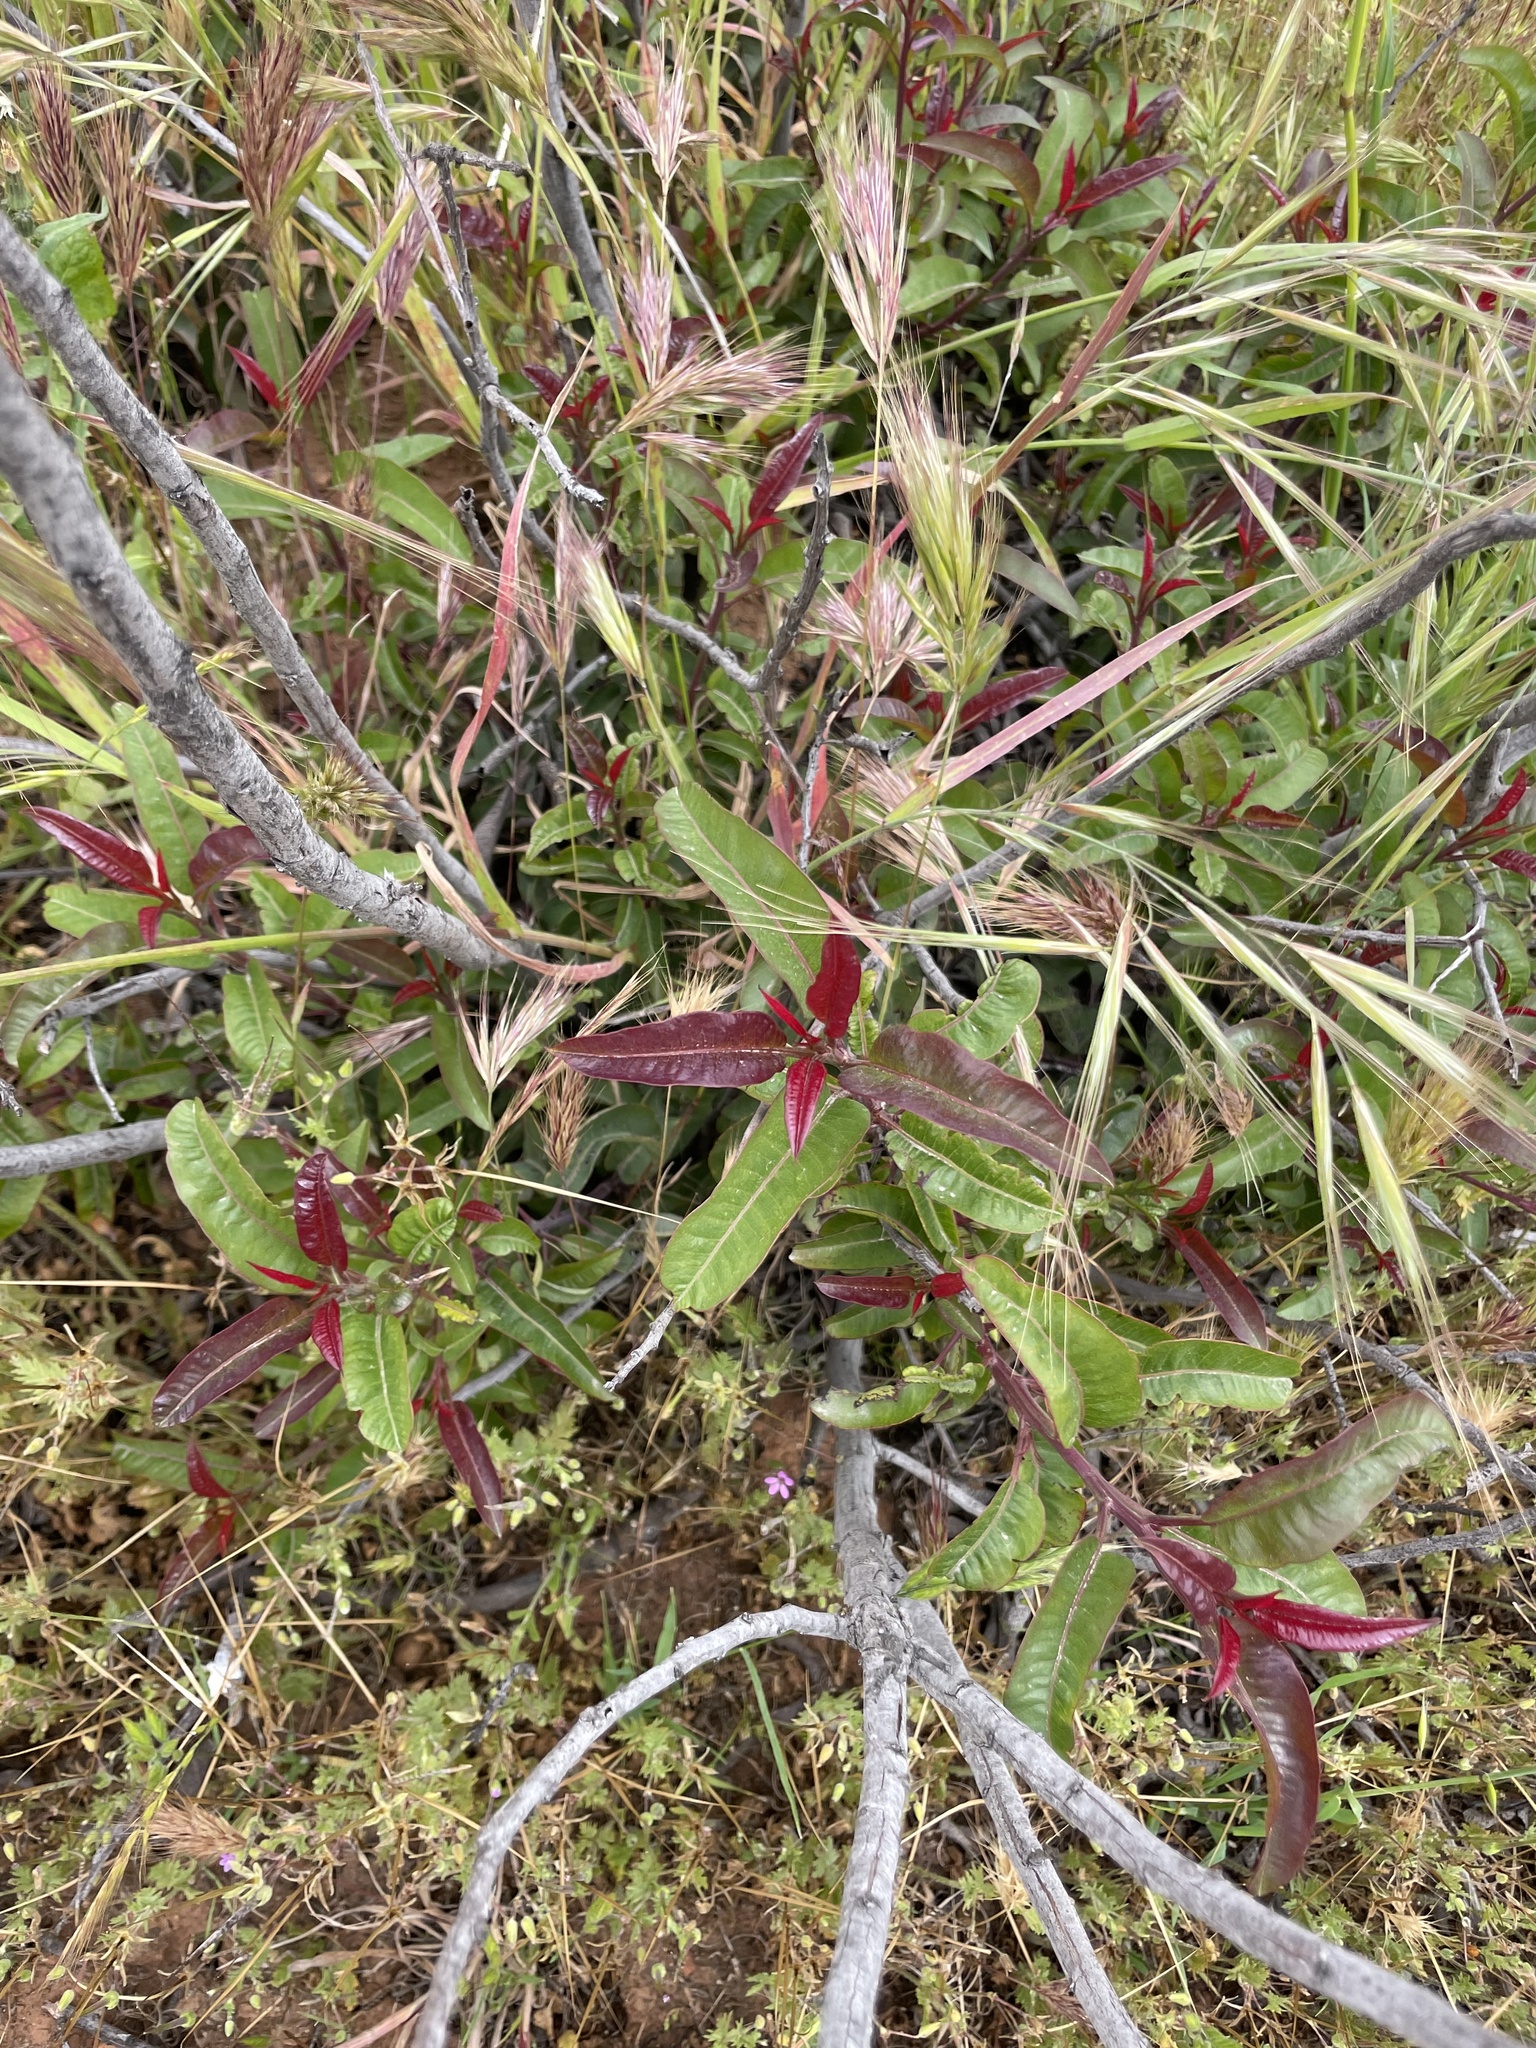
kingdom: Plantae
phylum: Tracheophyta
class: Magnoliopsida
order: Sapindales
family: Anacardiaceae
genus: Malosma
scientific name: Malosma laurina
